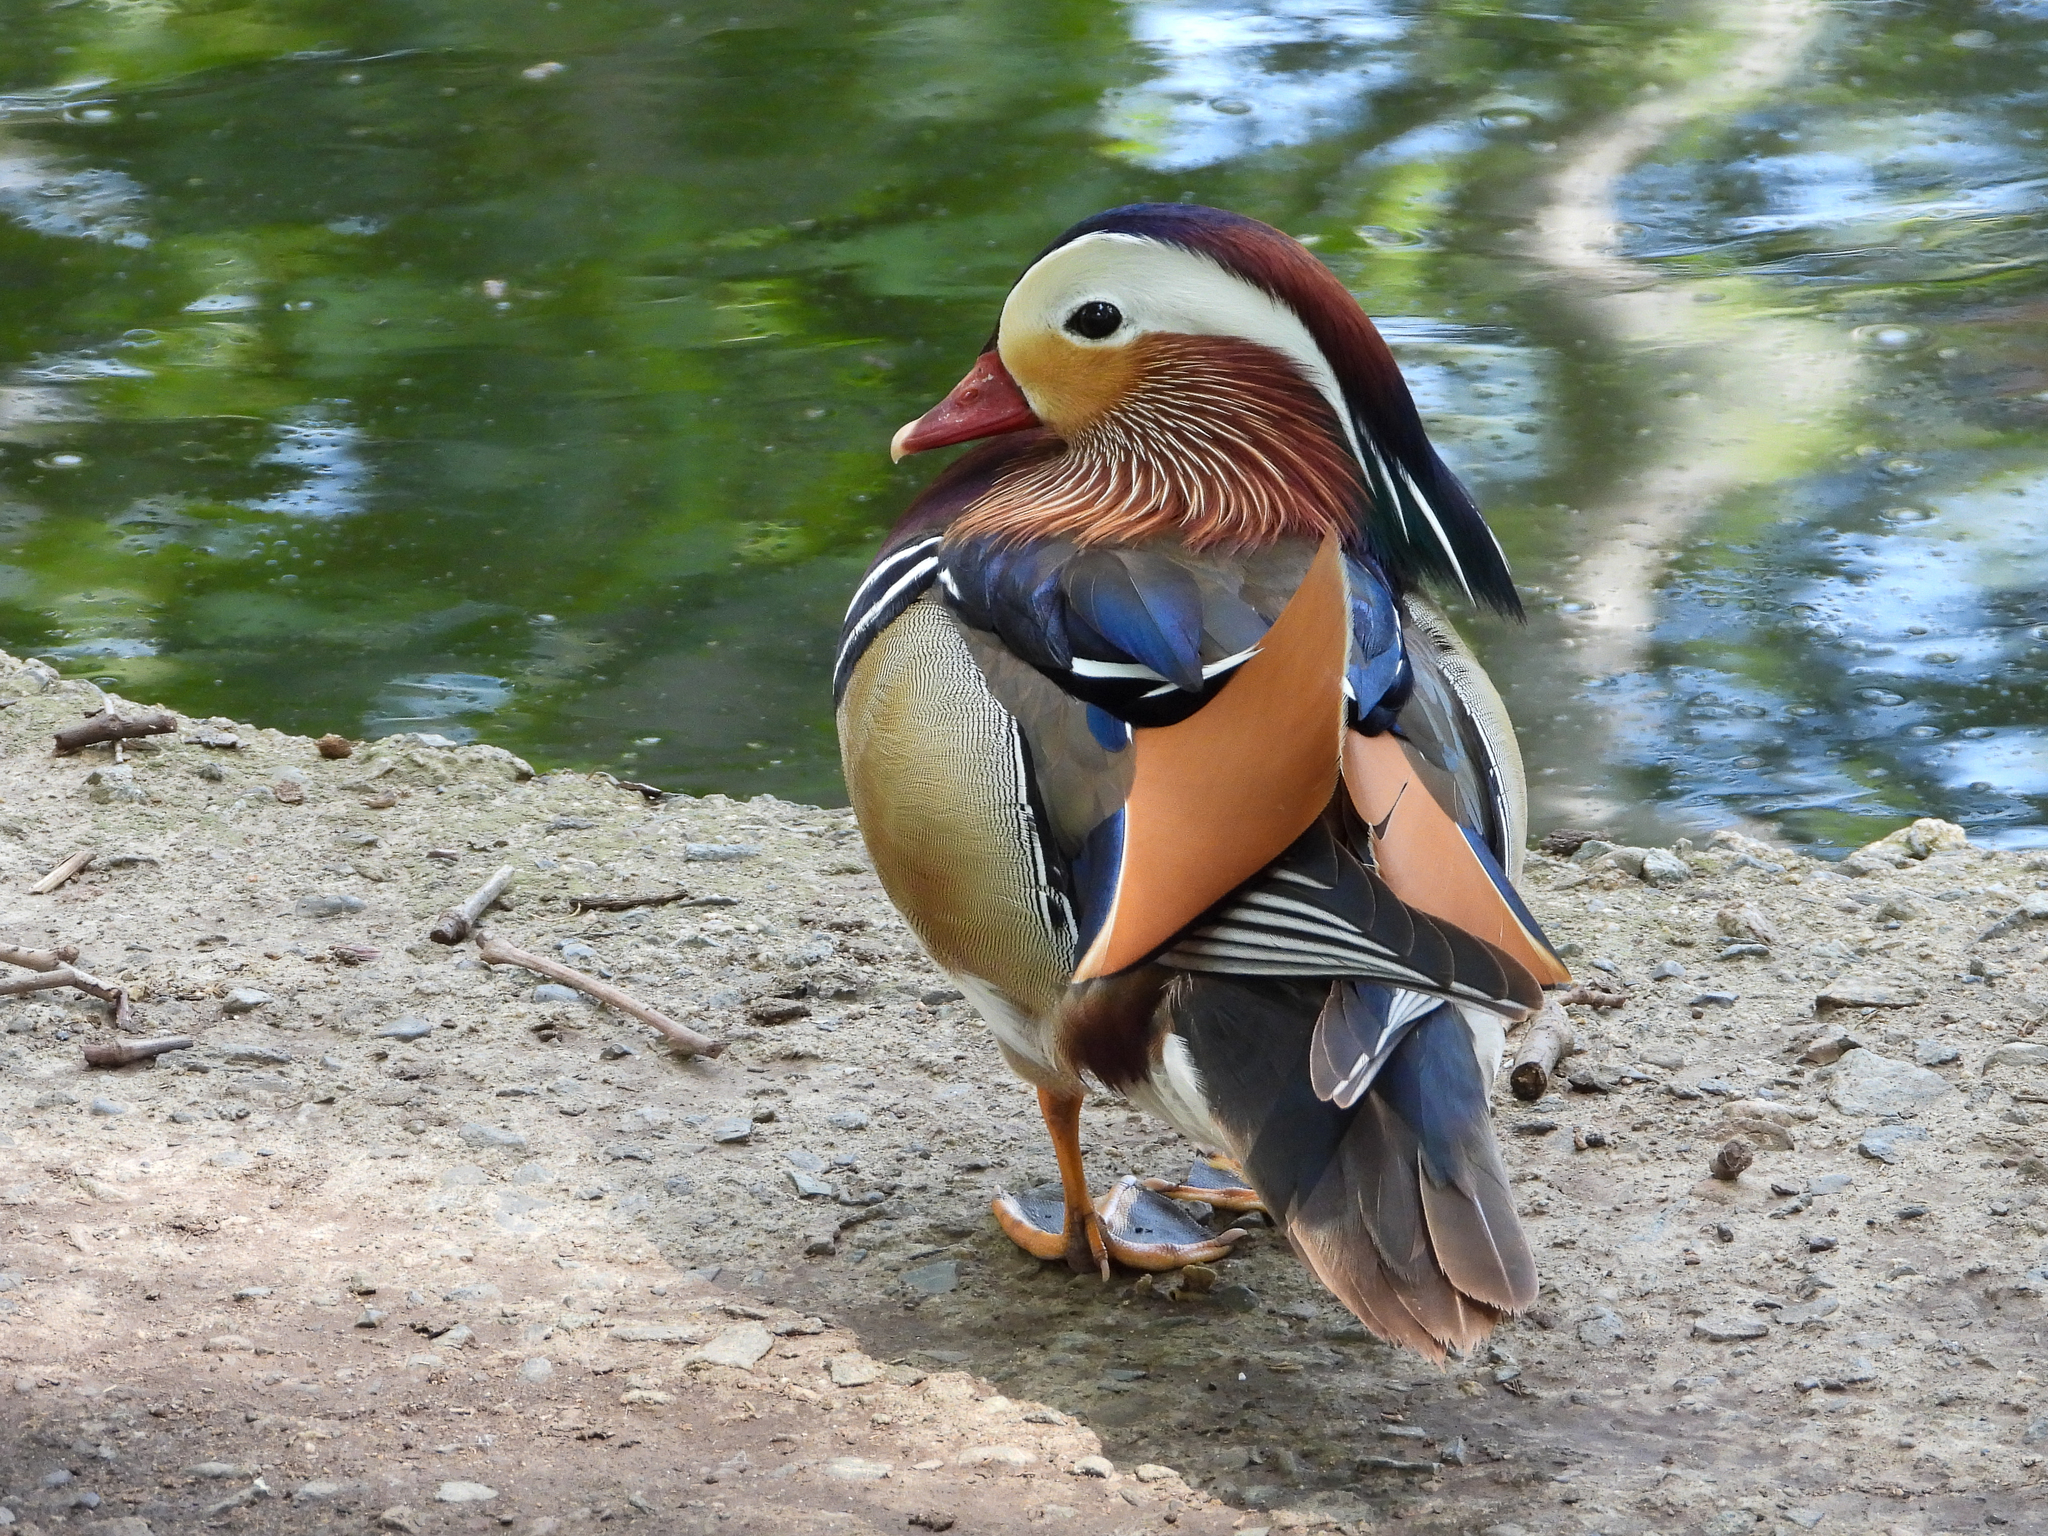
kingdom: Animalia
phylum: Chordata
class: Aves
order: Anseriformes
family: Anatidae
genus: Aix
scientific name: Aix galericulata
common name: Mandarin duck
